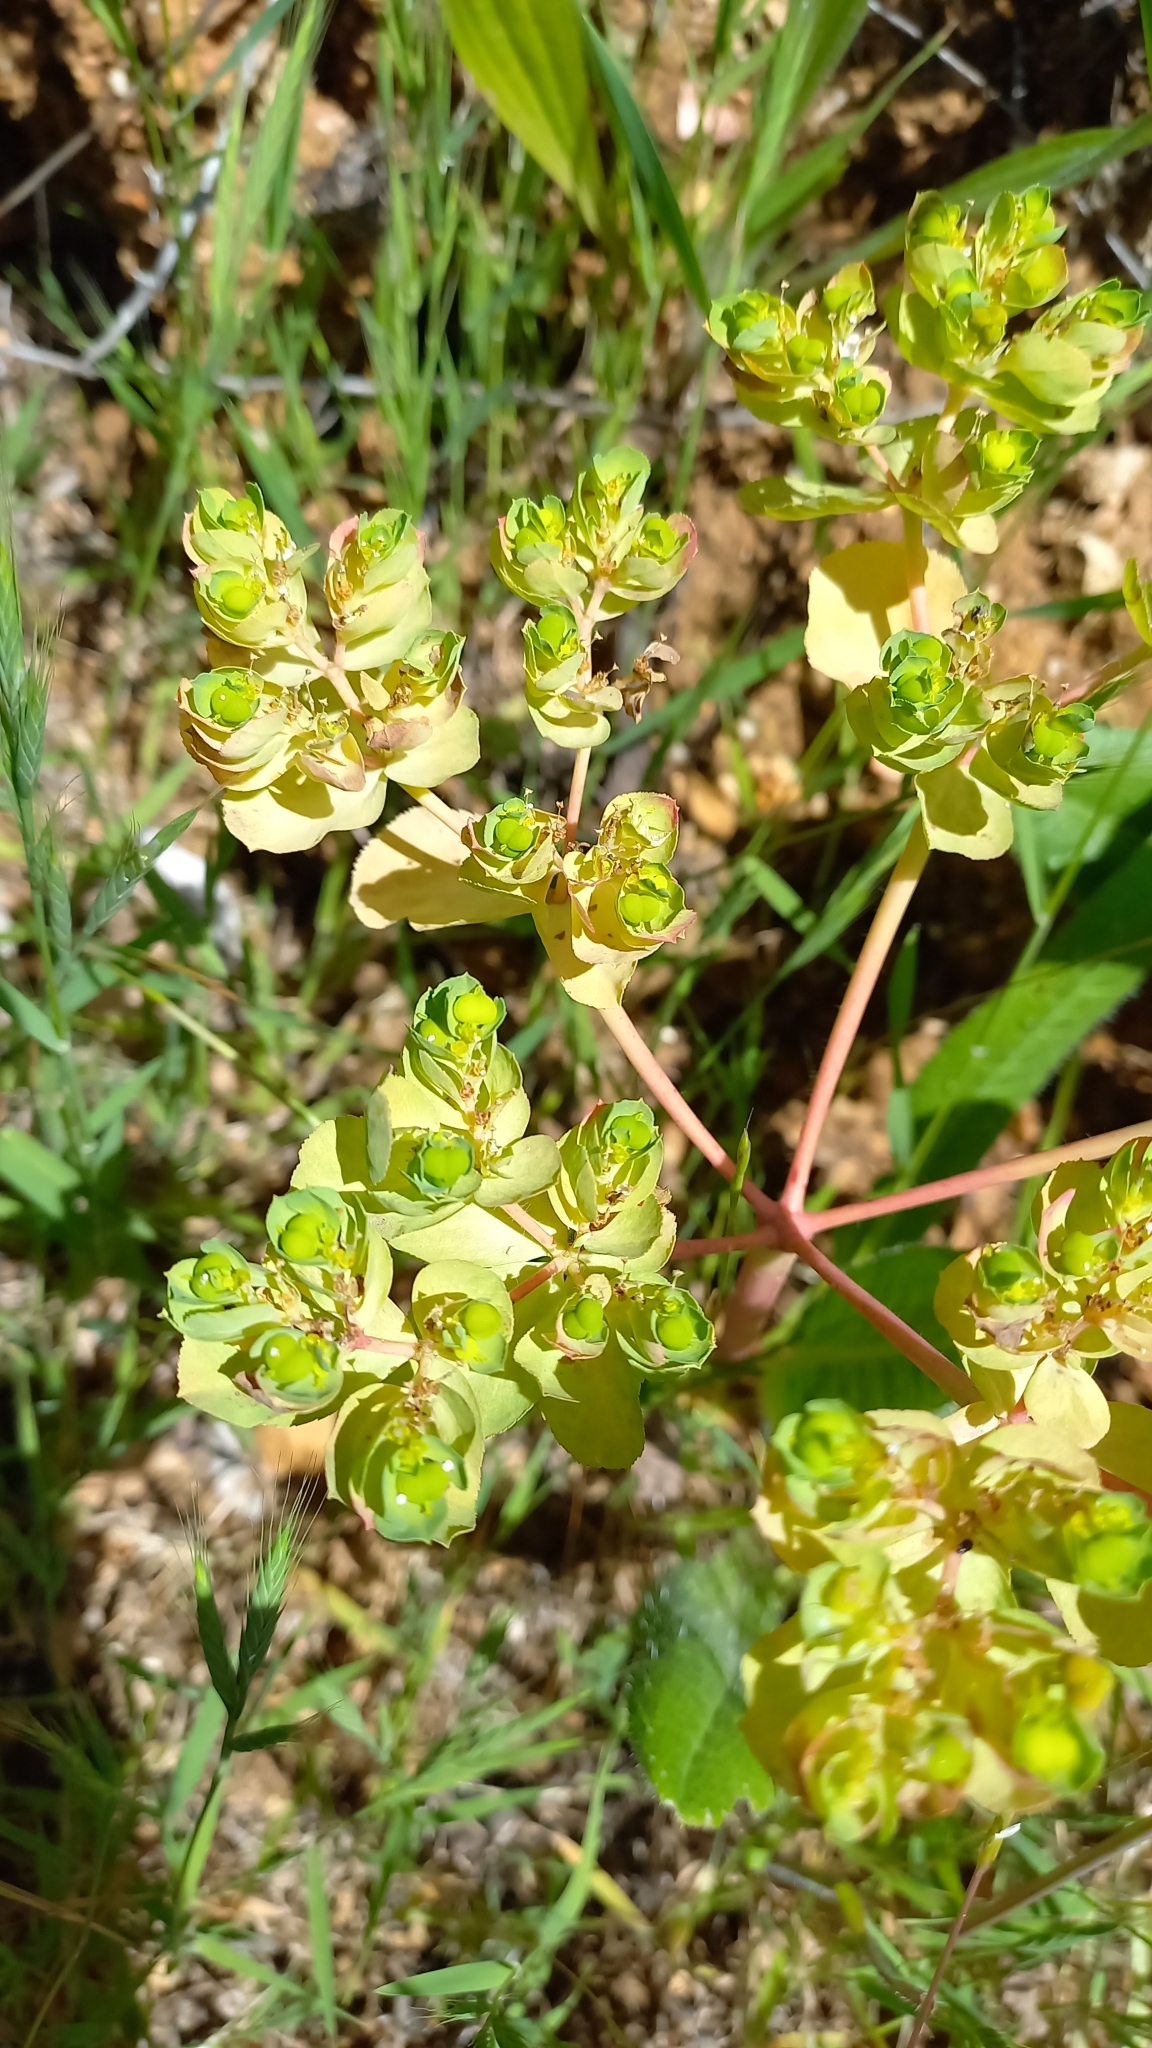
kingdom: Plantae
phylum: Tracheophyta
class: Magnoliopsida
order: Malpighiales
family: Euphorbiaceae
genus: Euphorbia
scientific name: Euphorbia helioscopia
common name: Sun spurge
